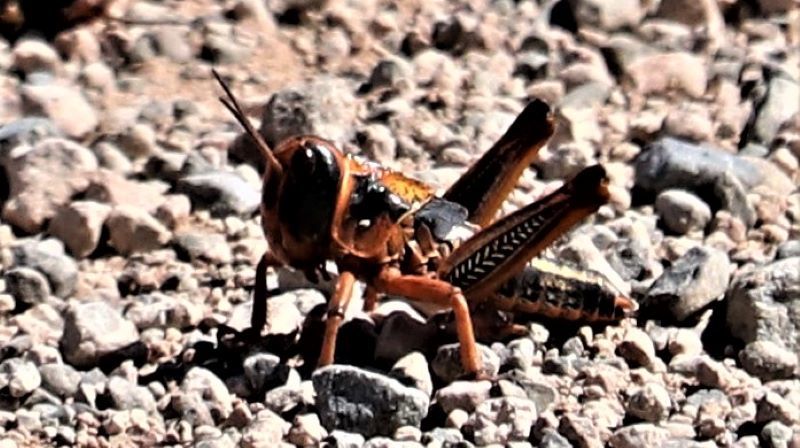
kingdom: Animalia
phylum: Arthropoda
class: Insecta
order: Orthoptera
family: Acrididae
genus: Locustana
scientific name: Locustana pardalina
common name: Brown locust
